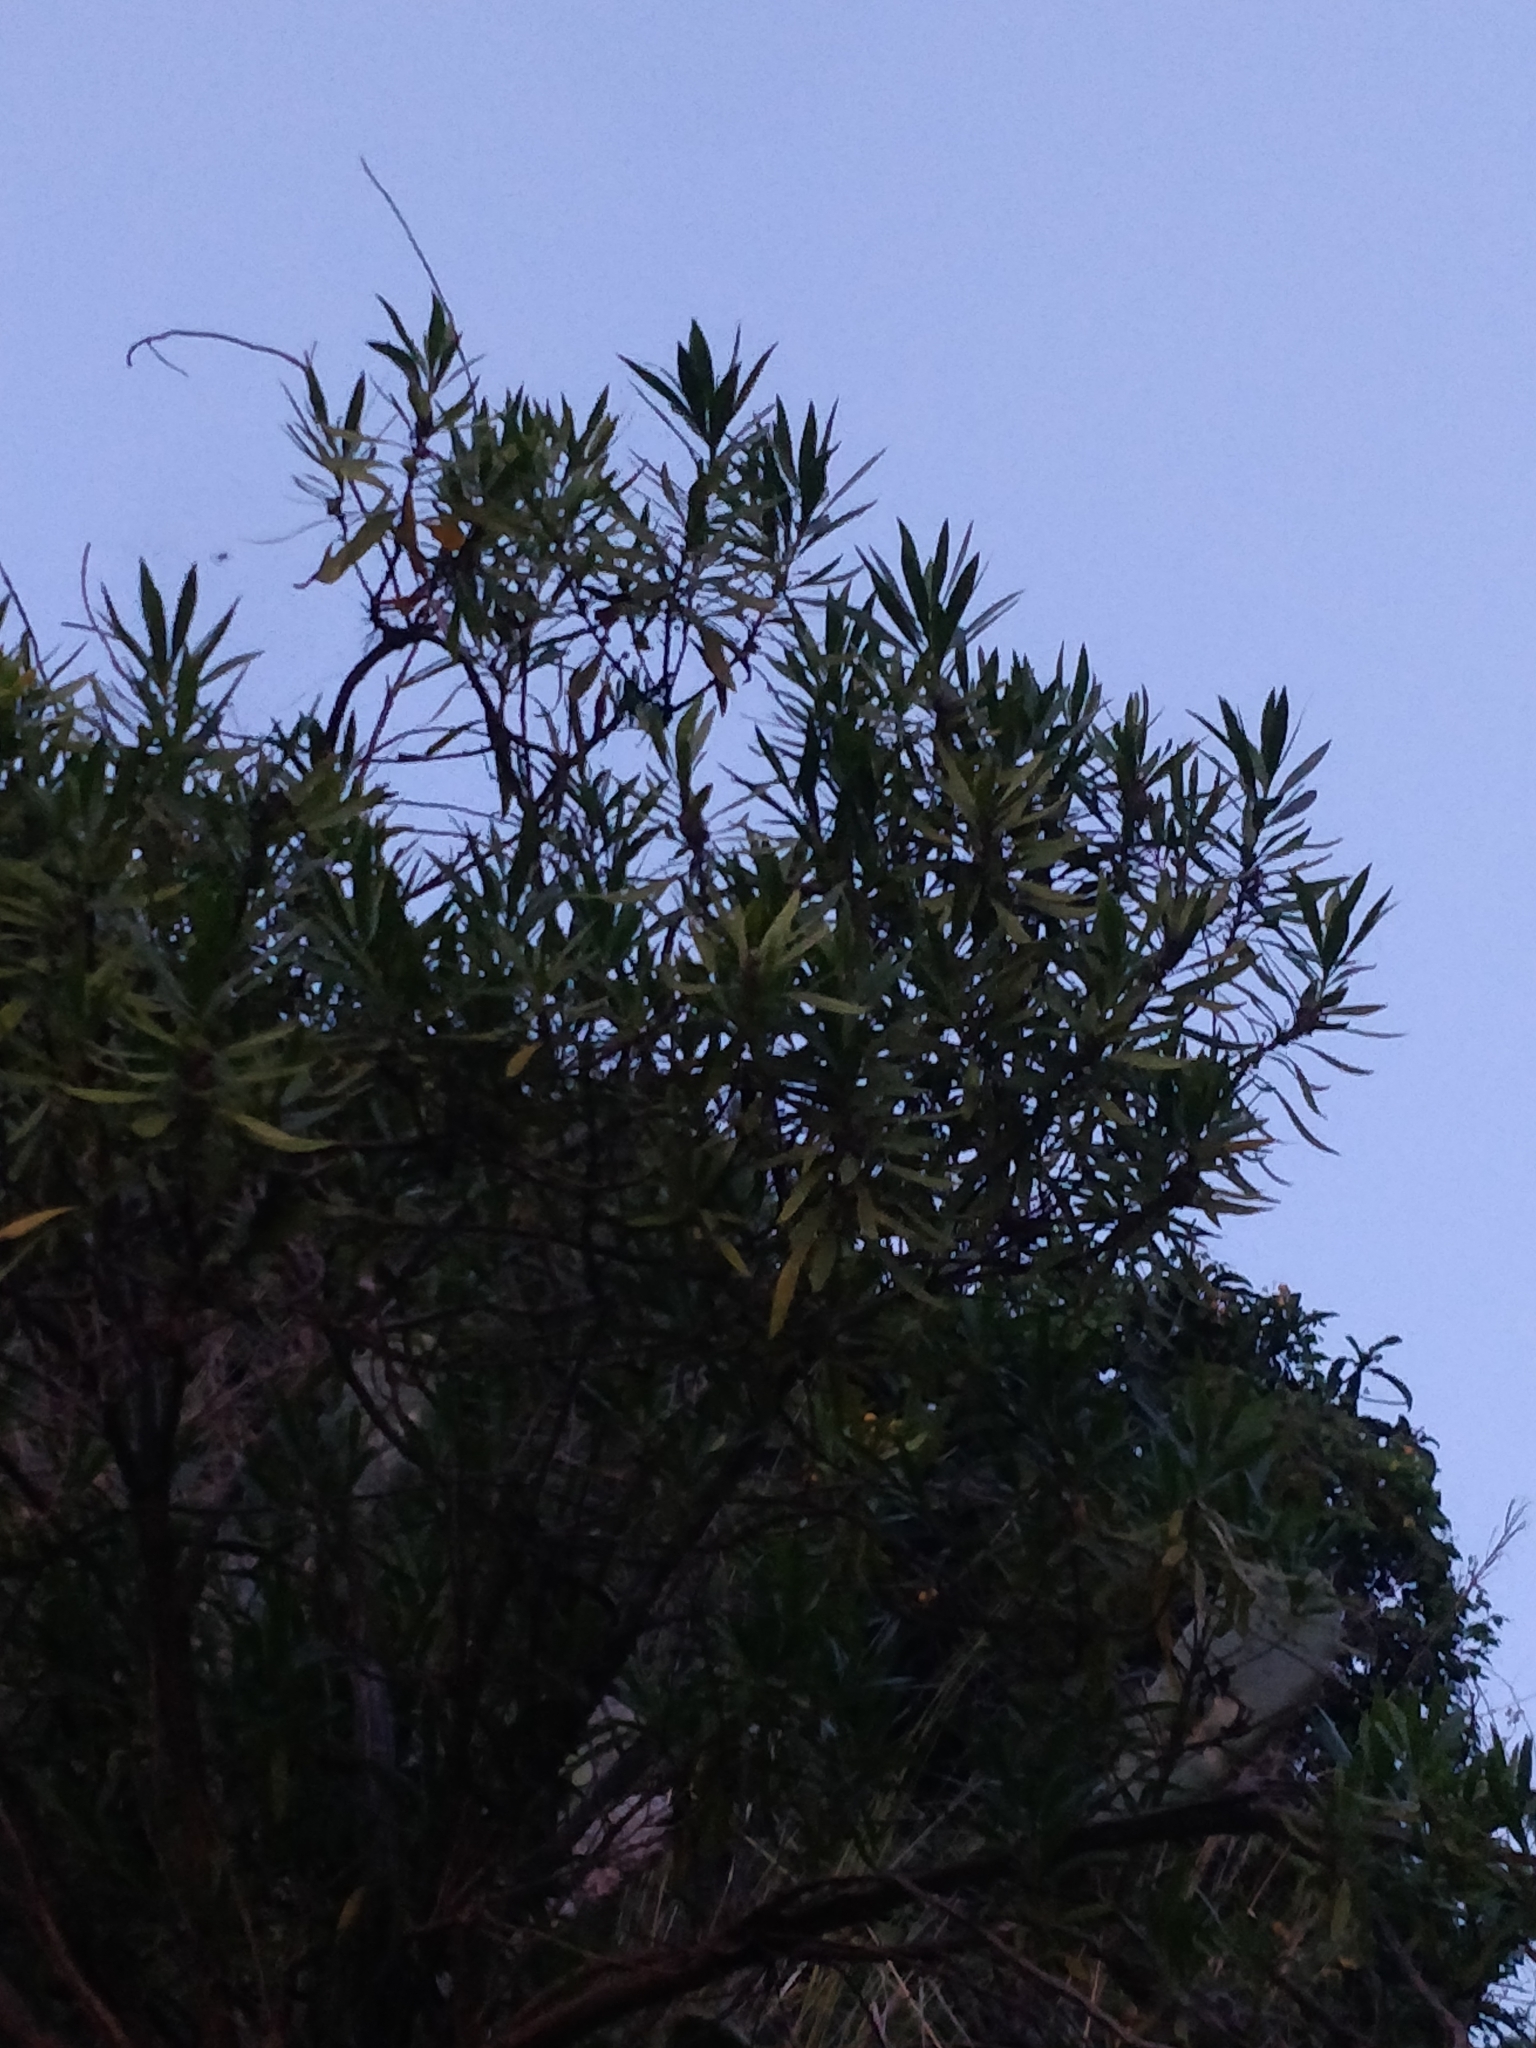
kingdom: Plantae
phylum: Tracheophyta
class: Magnoliopsida
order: Lamiales
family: Plantaginaceae
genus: Globularia
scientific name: Globularia salicina
